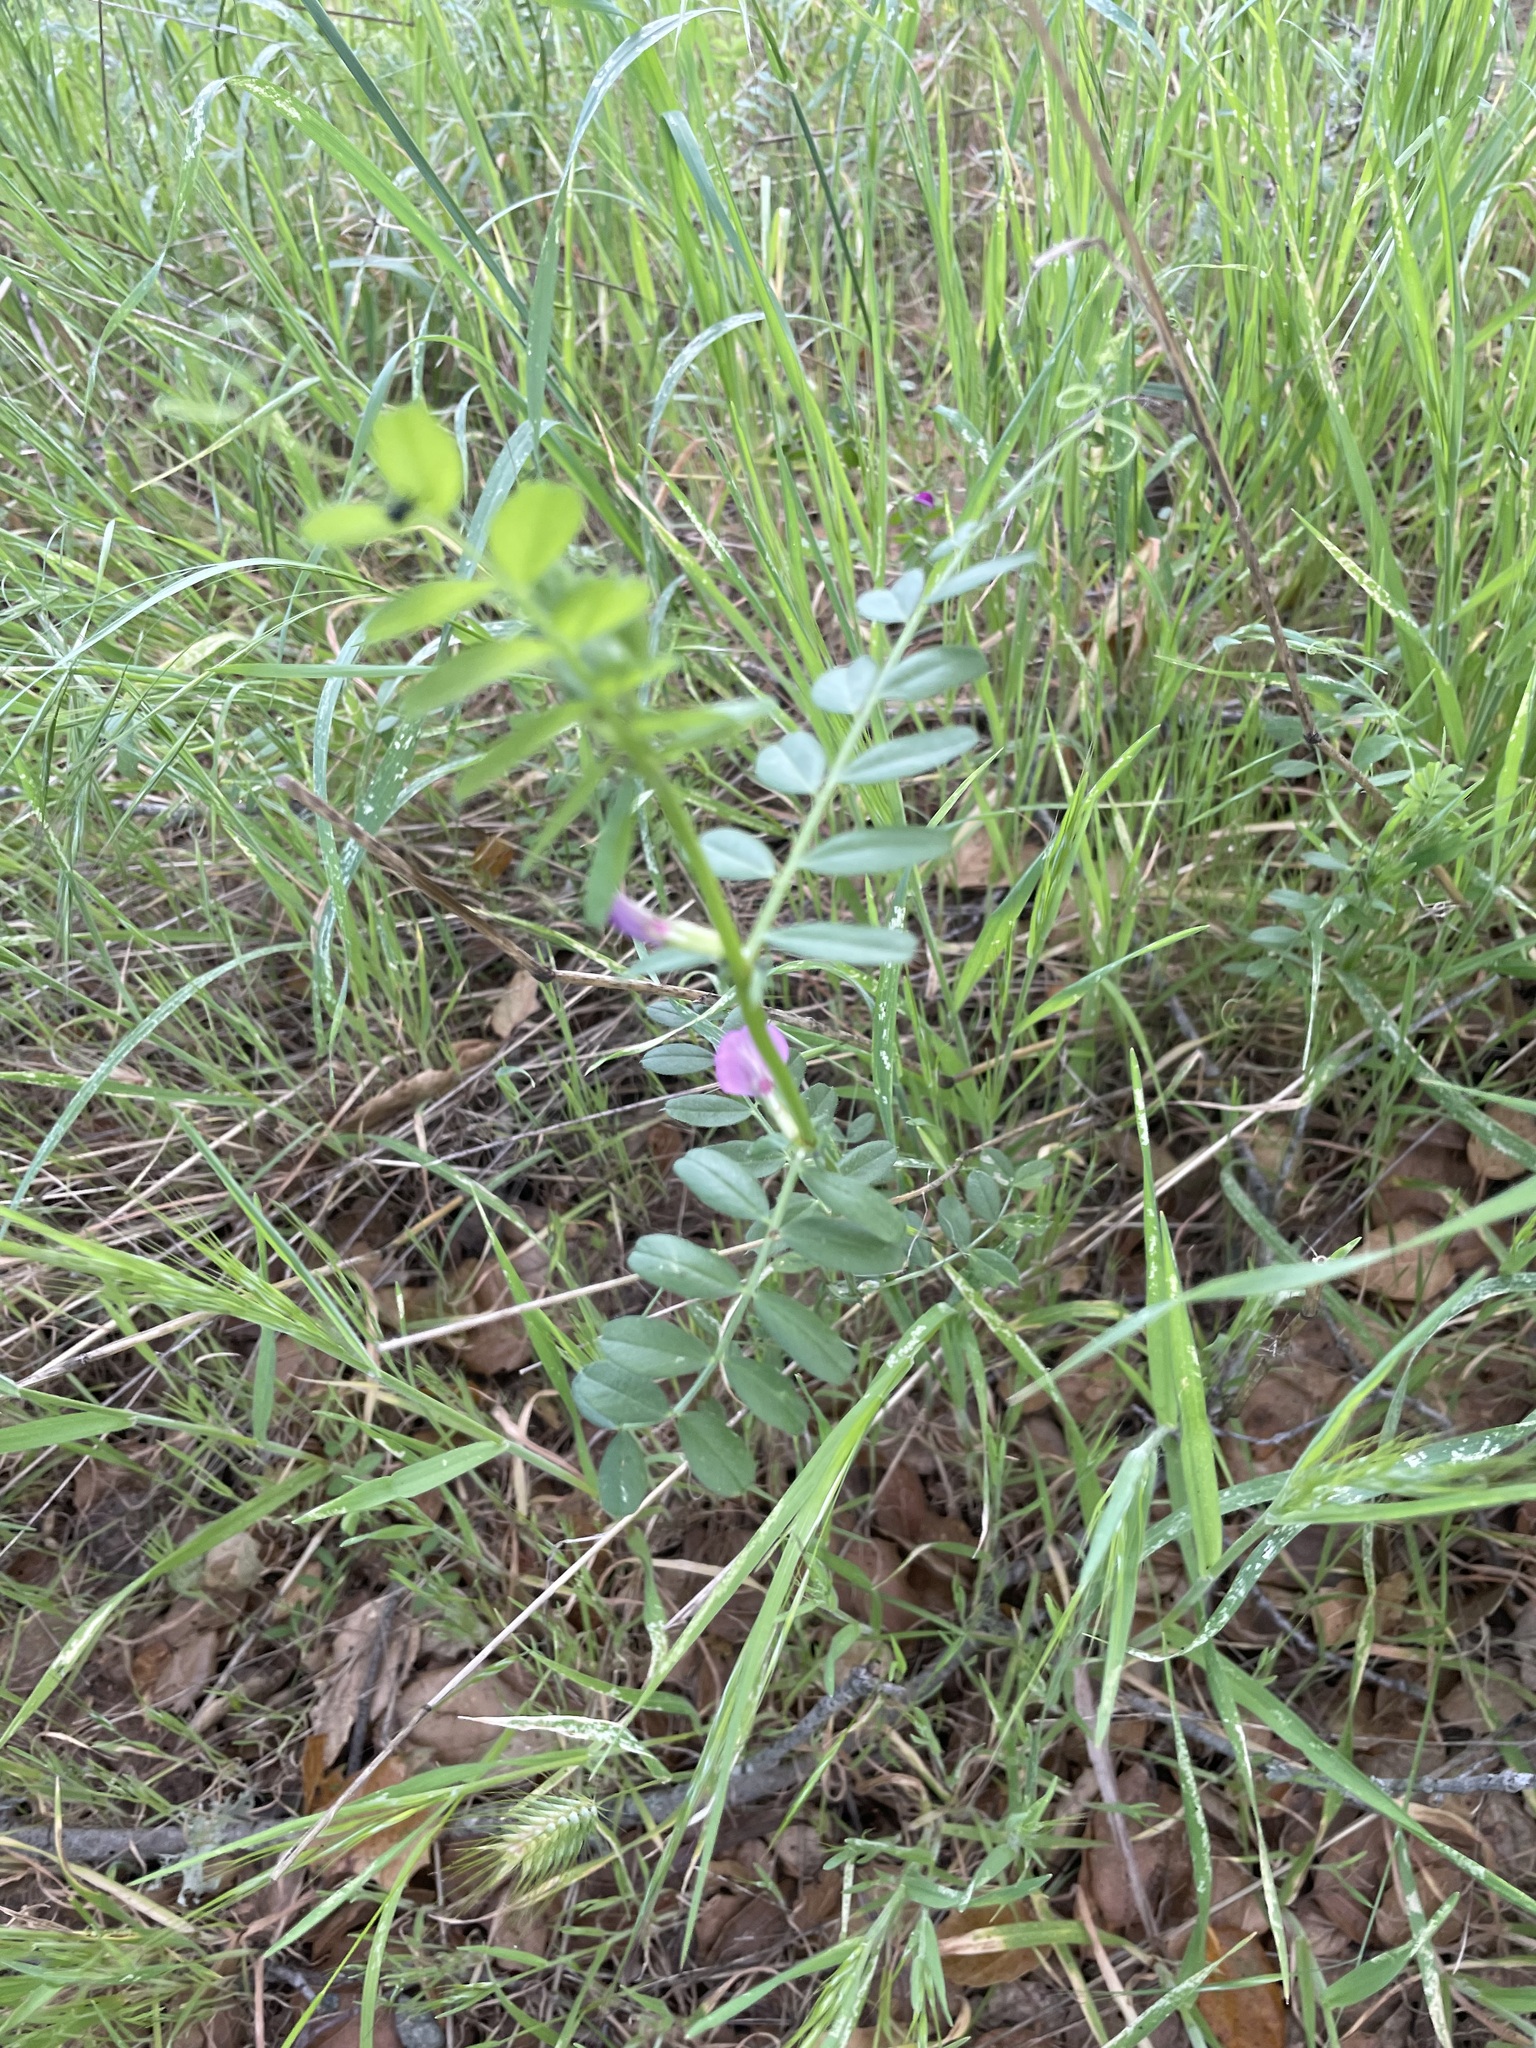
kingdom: Plantae
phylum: Tracheophyta
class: Magnoliopsida
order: Fabales
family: Fabaceae
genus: Vicia
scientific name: Vicia sativa
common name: Garden vetch
